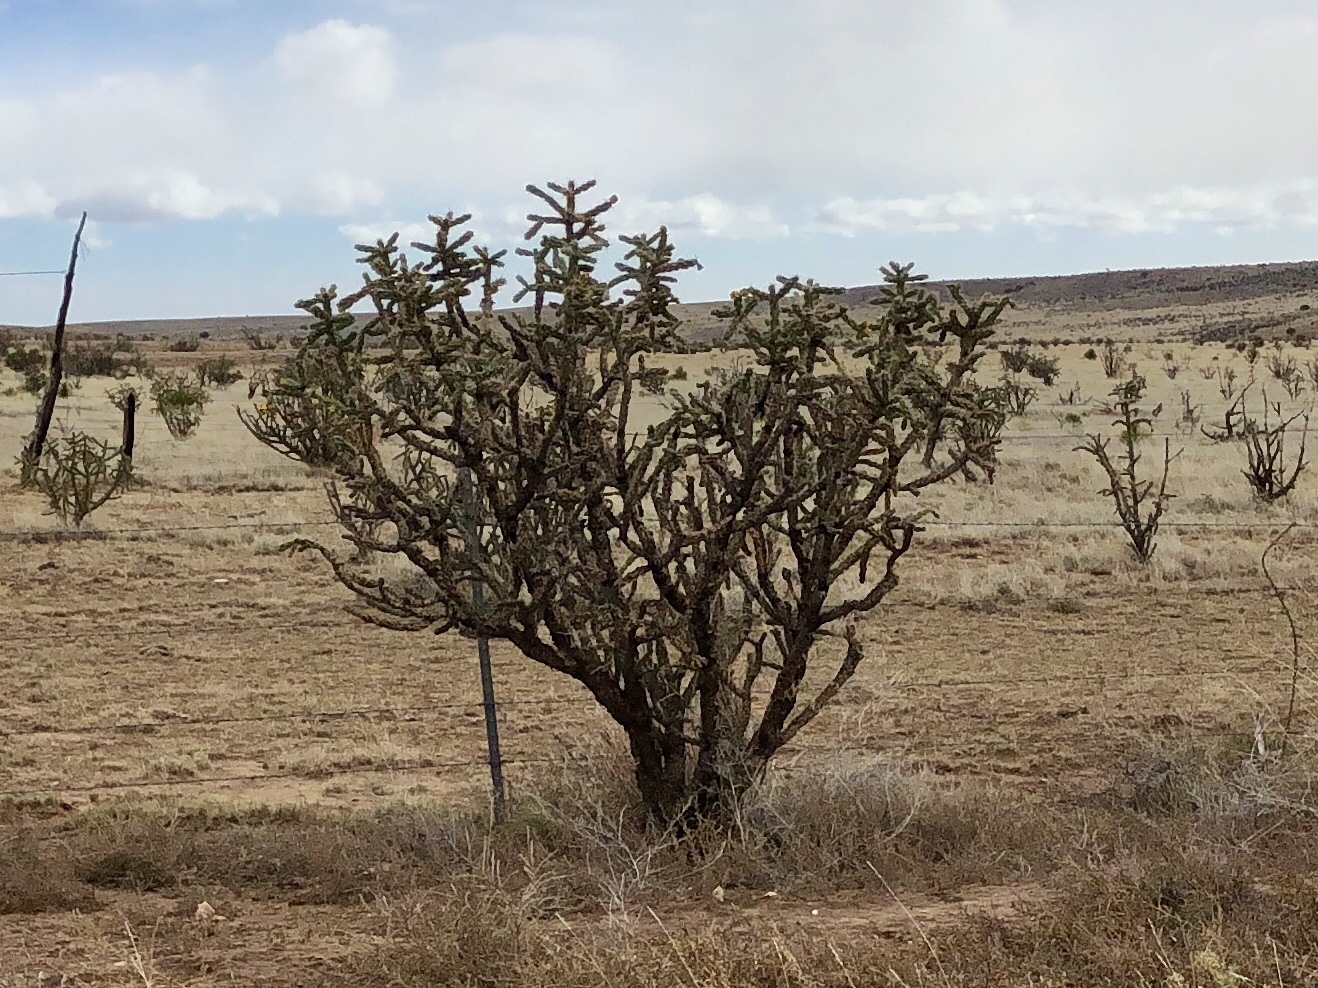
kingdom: Plantae
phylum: Tracheophyta
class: Magnoliopsida
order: Caryophyllales
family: Cactaceae
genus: Cylindropuntia
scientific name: Cylindropuntia imbricata
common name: Candelabrum cactus
